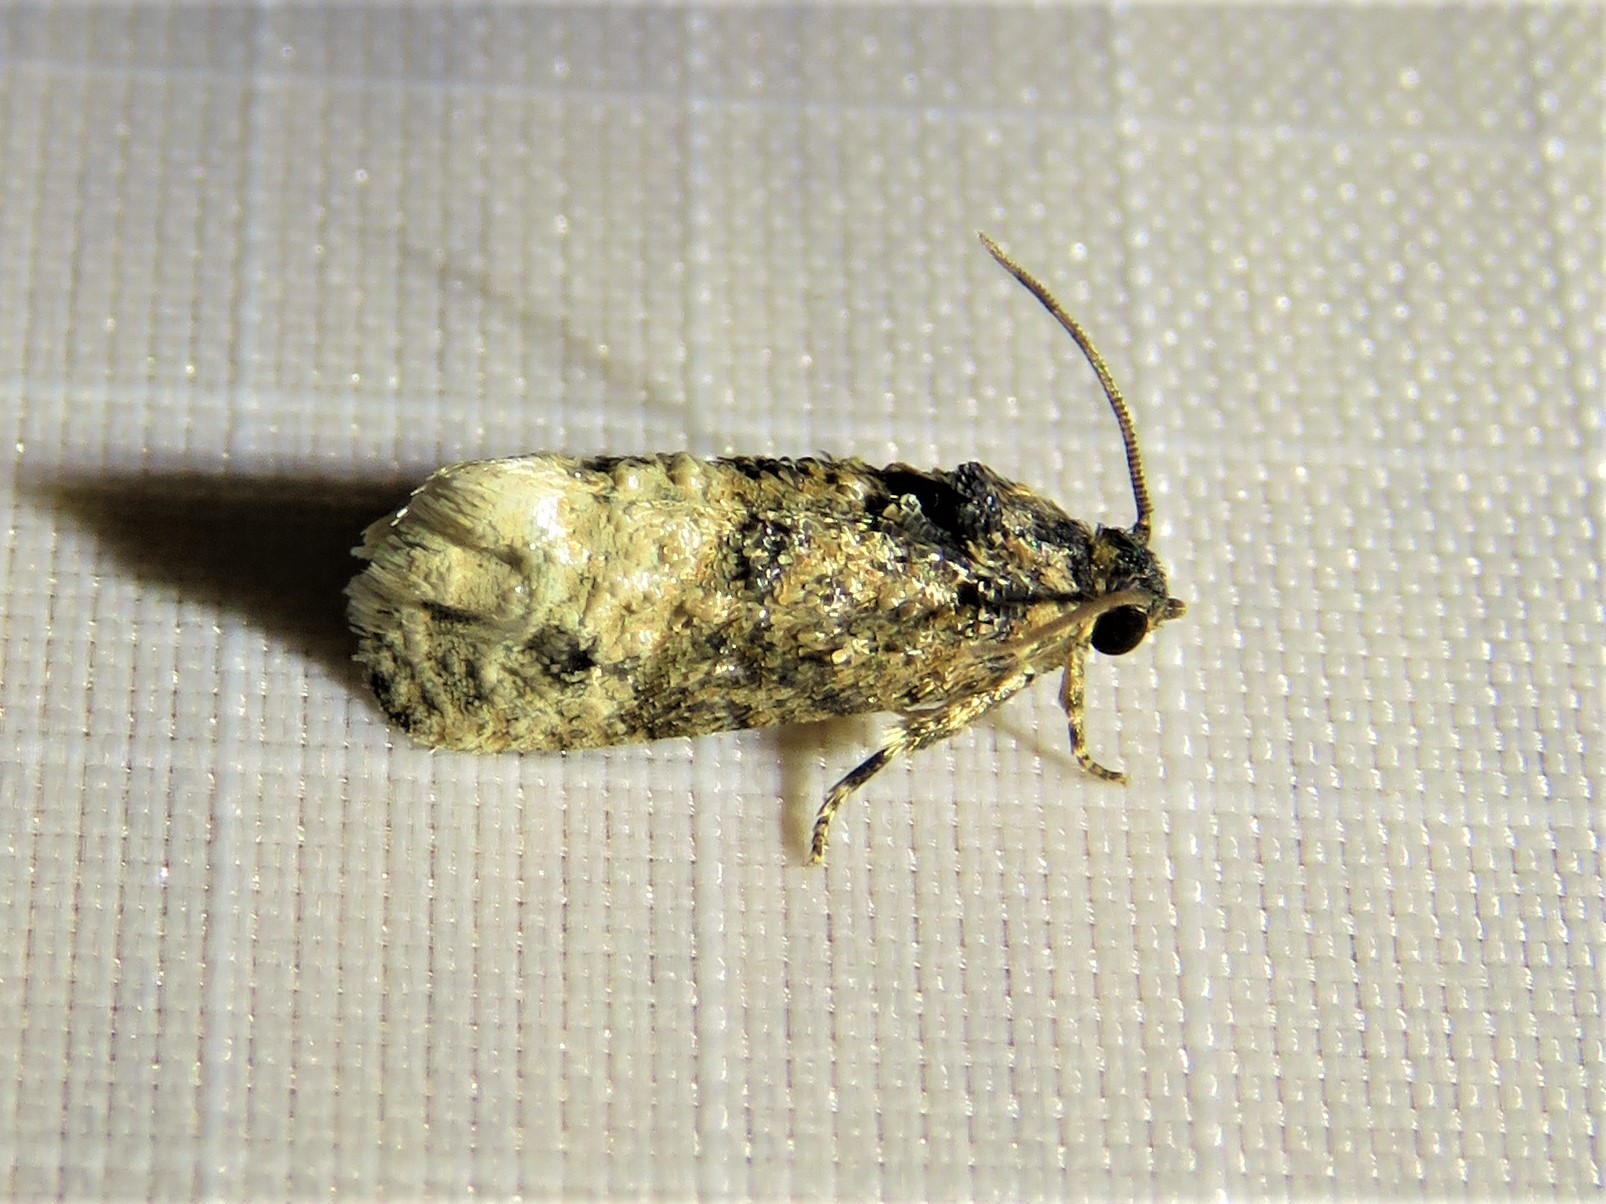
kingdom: Animalia
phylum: Arthropoda
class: Insecta
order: Lepidoptera
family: Tortricidae
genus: Ecdytolopha
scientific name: Ecdytolopha mana
